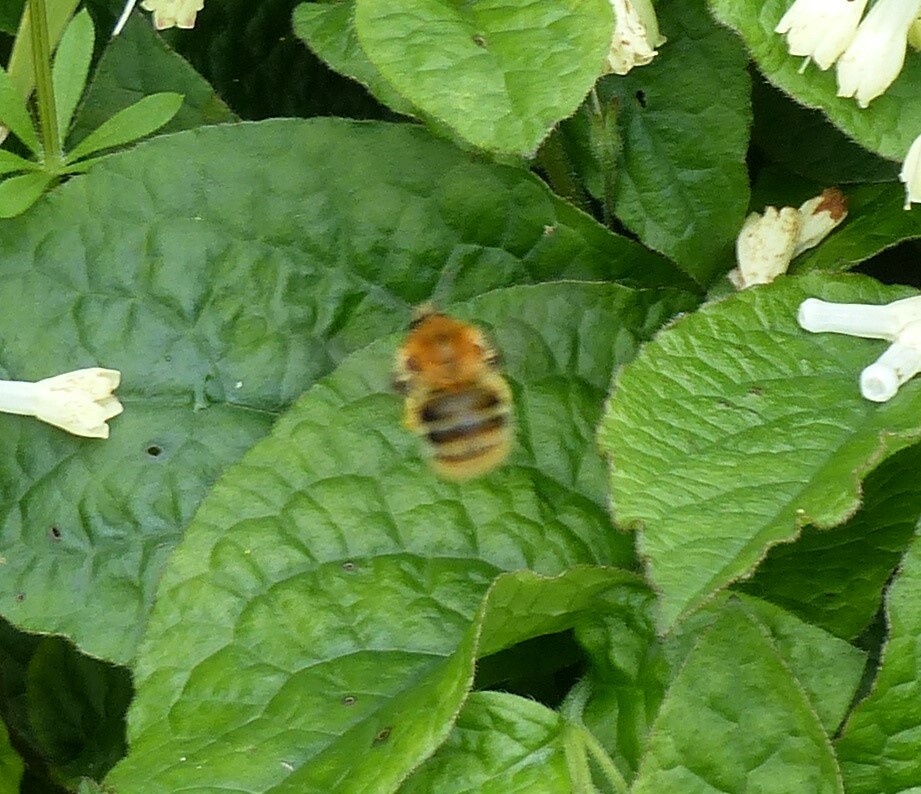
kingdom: Animalia
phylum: Arthropoda
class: Insecta
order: Hymenoptera
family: Apidae
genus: Bombus
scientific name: Bombus pascuorum
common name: Common carder bee
